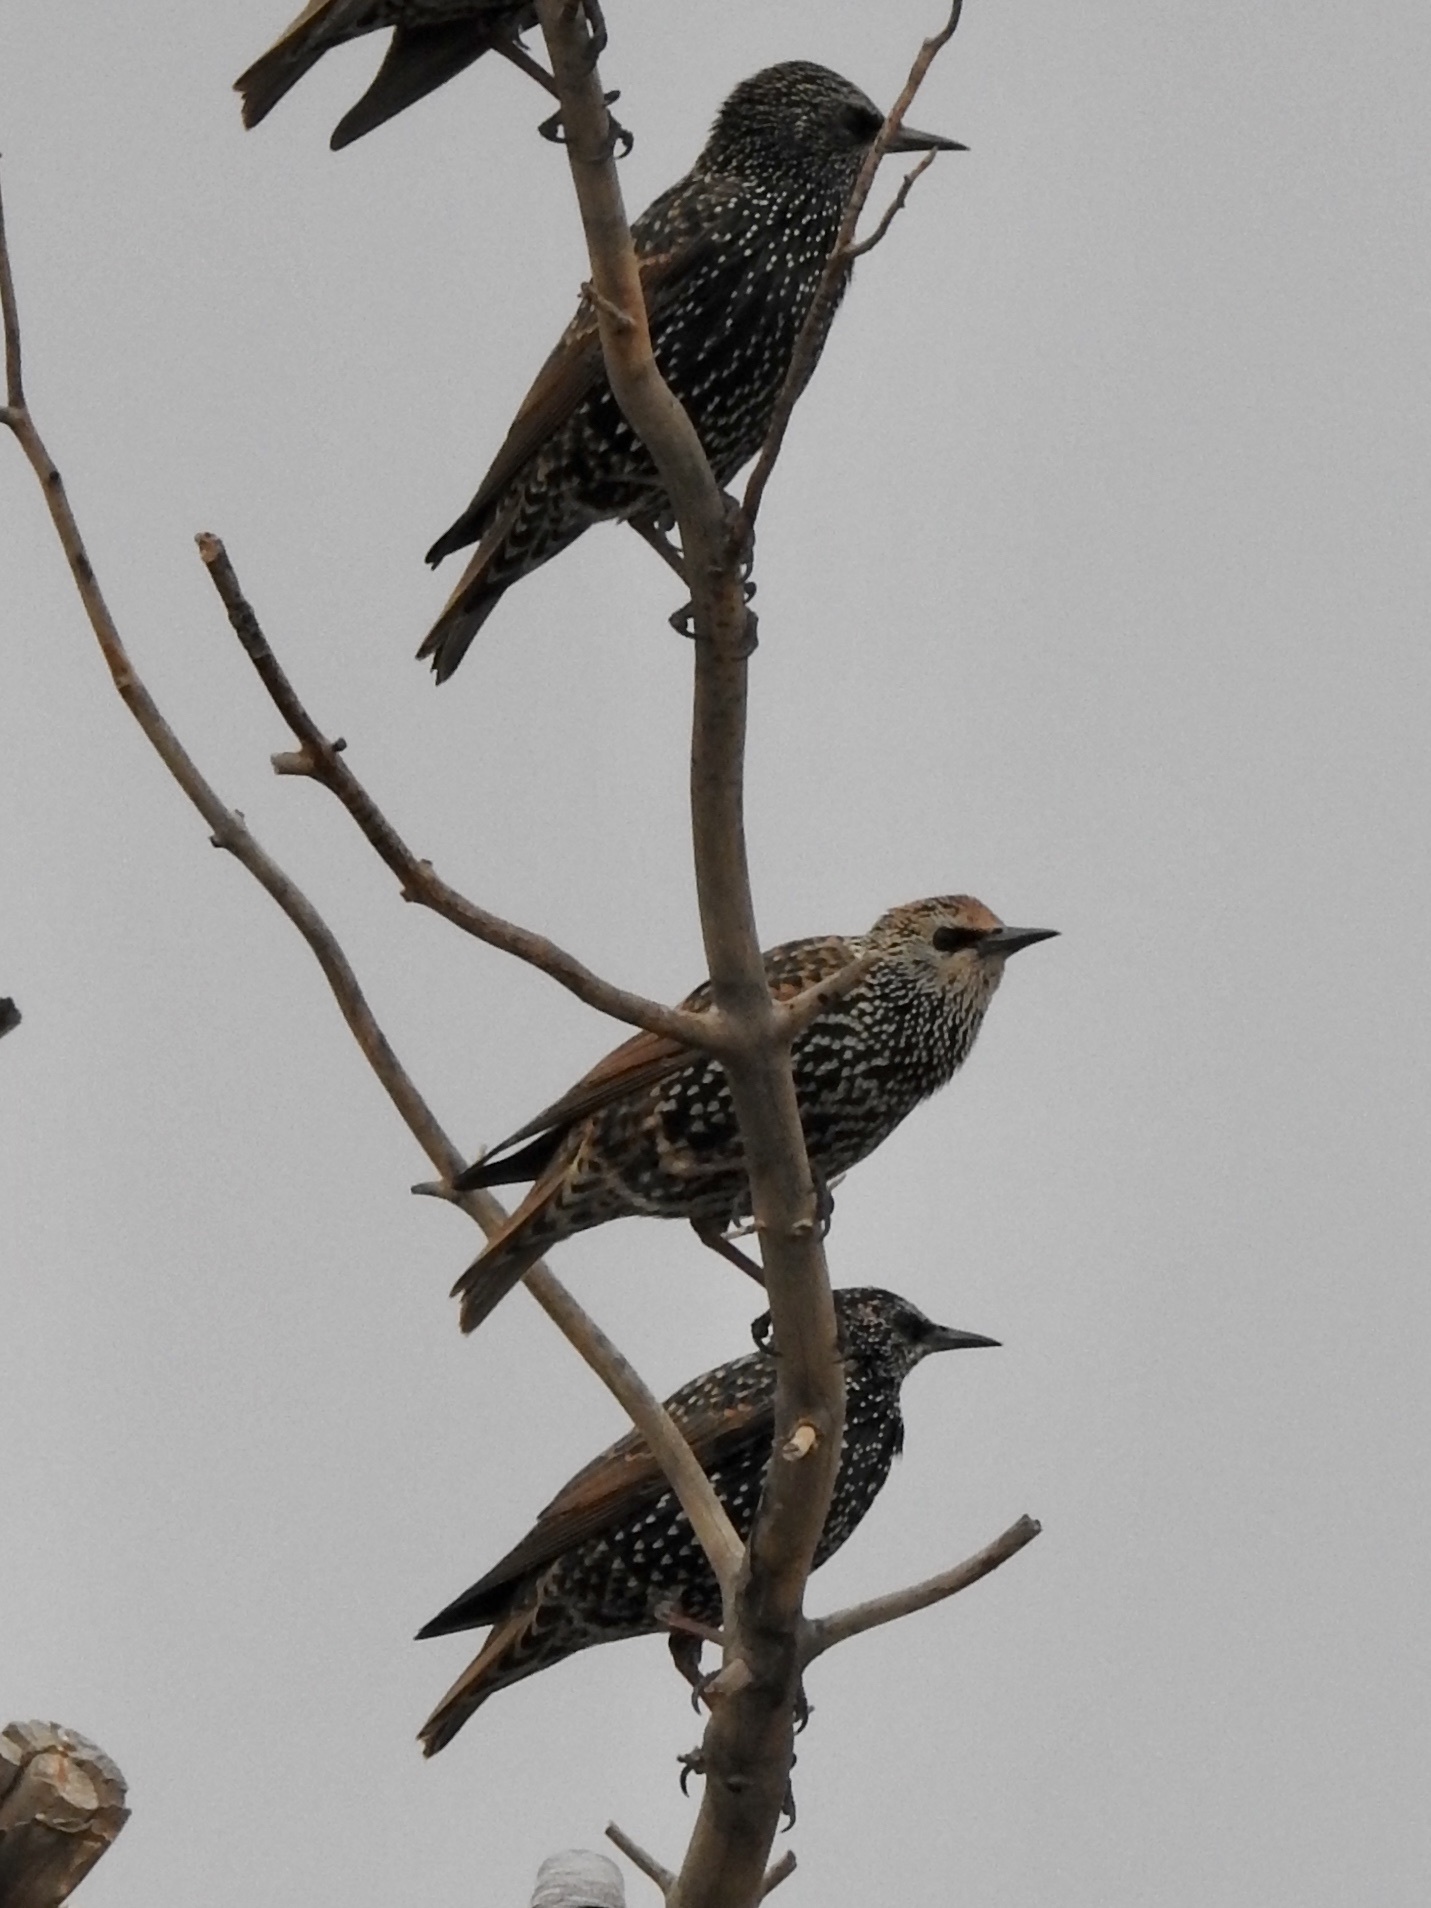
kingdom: Animalia
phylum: Chordata
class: Aves
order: Passeriformes
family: Sturnidae
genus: Sturnus
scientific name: Sturnus vulgaris
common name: Common starling
